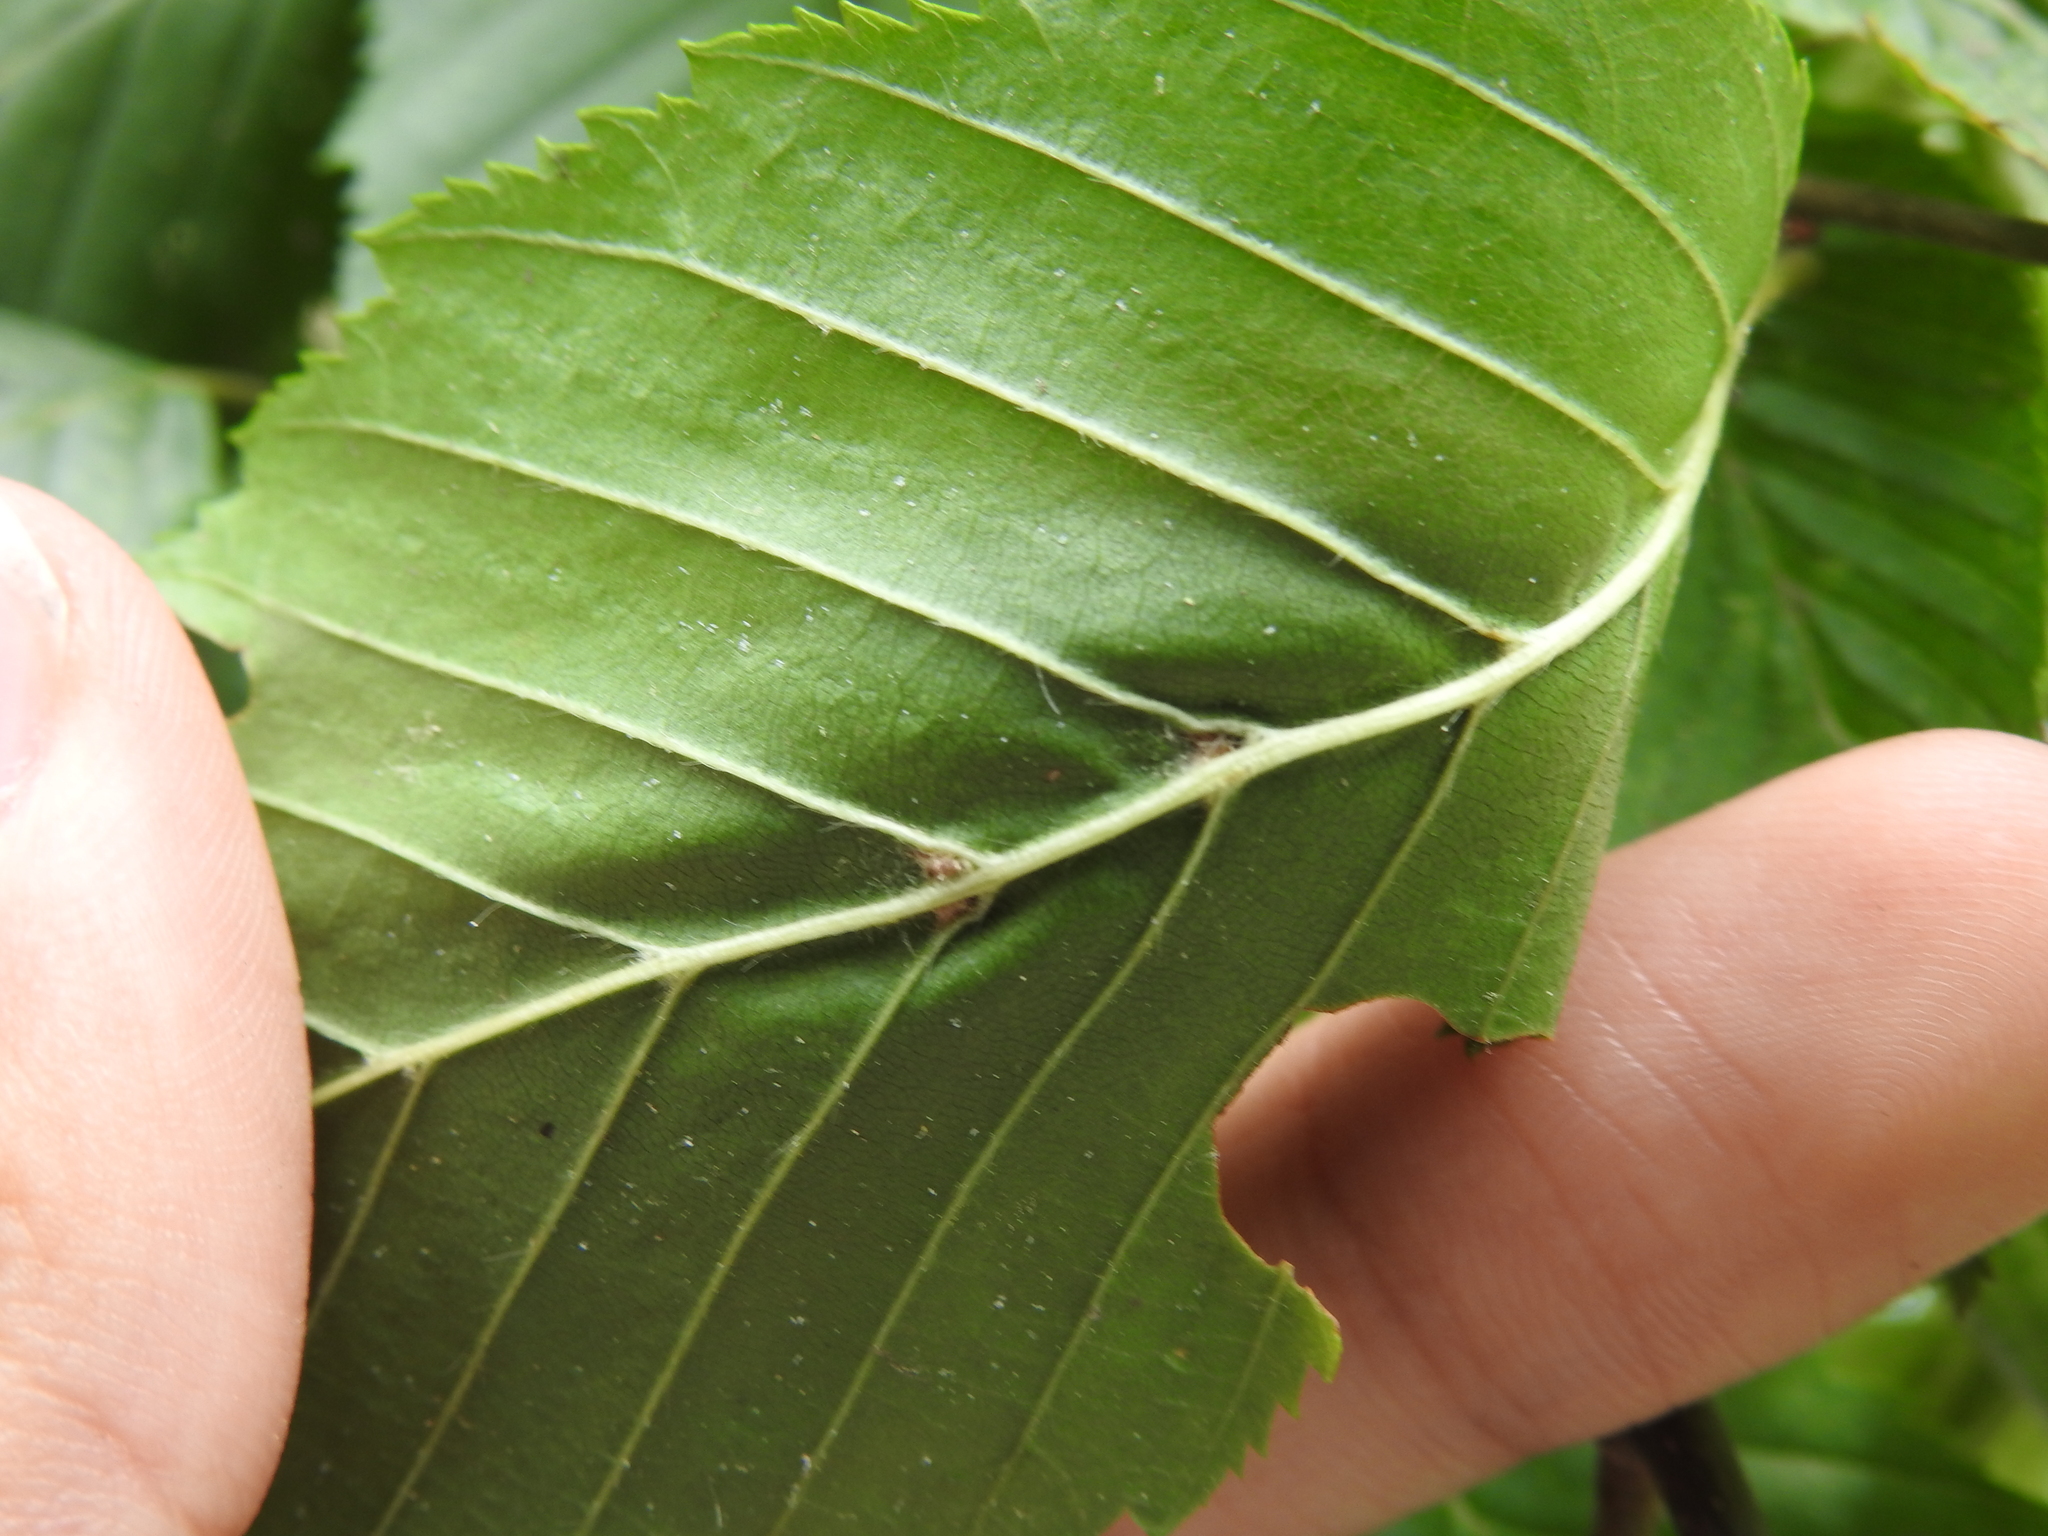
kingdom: Animalia
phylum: Arthropoda
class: Arachnida
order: Trombidiformes
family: Eriophyidae
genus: Aceria
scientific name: Aceria tenellus
